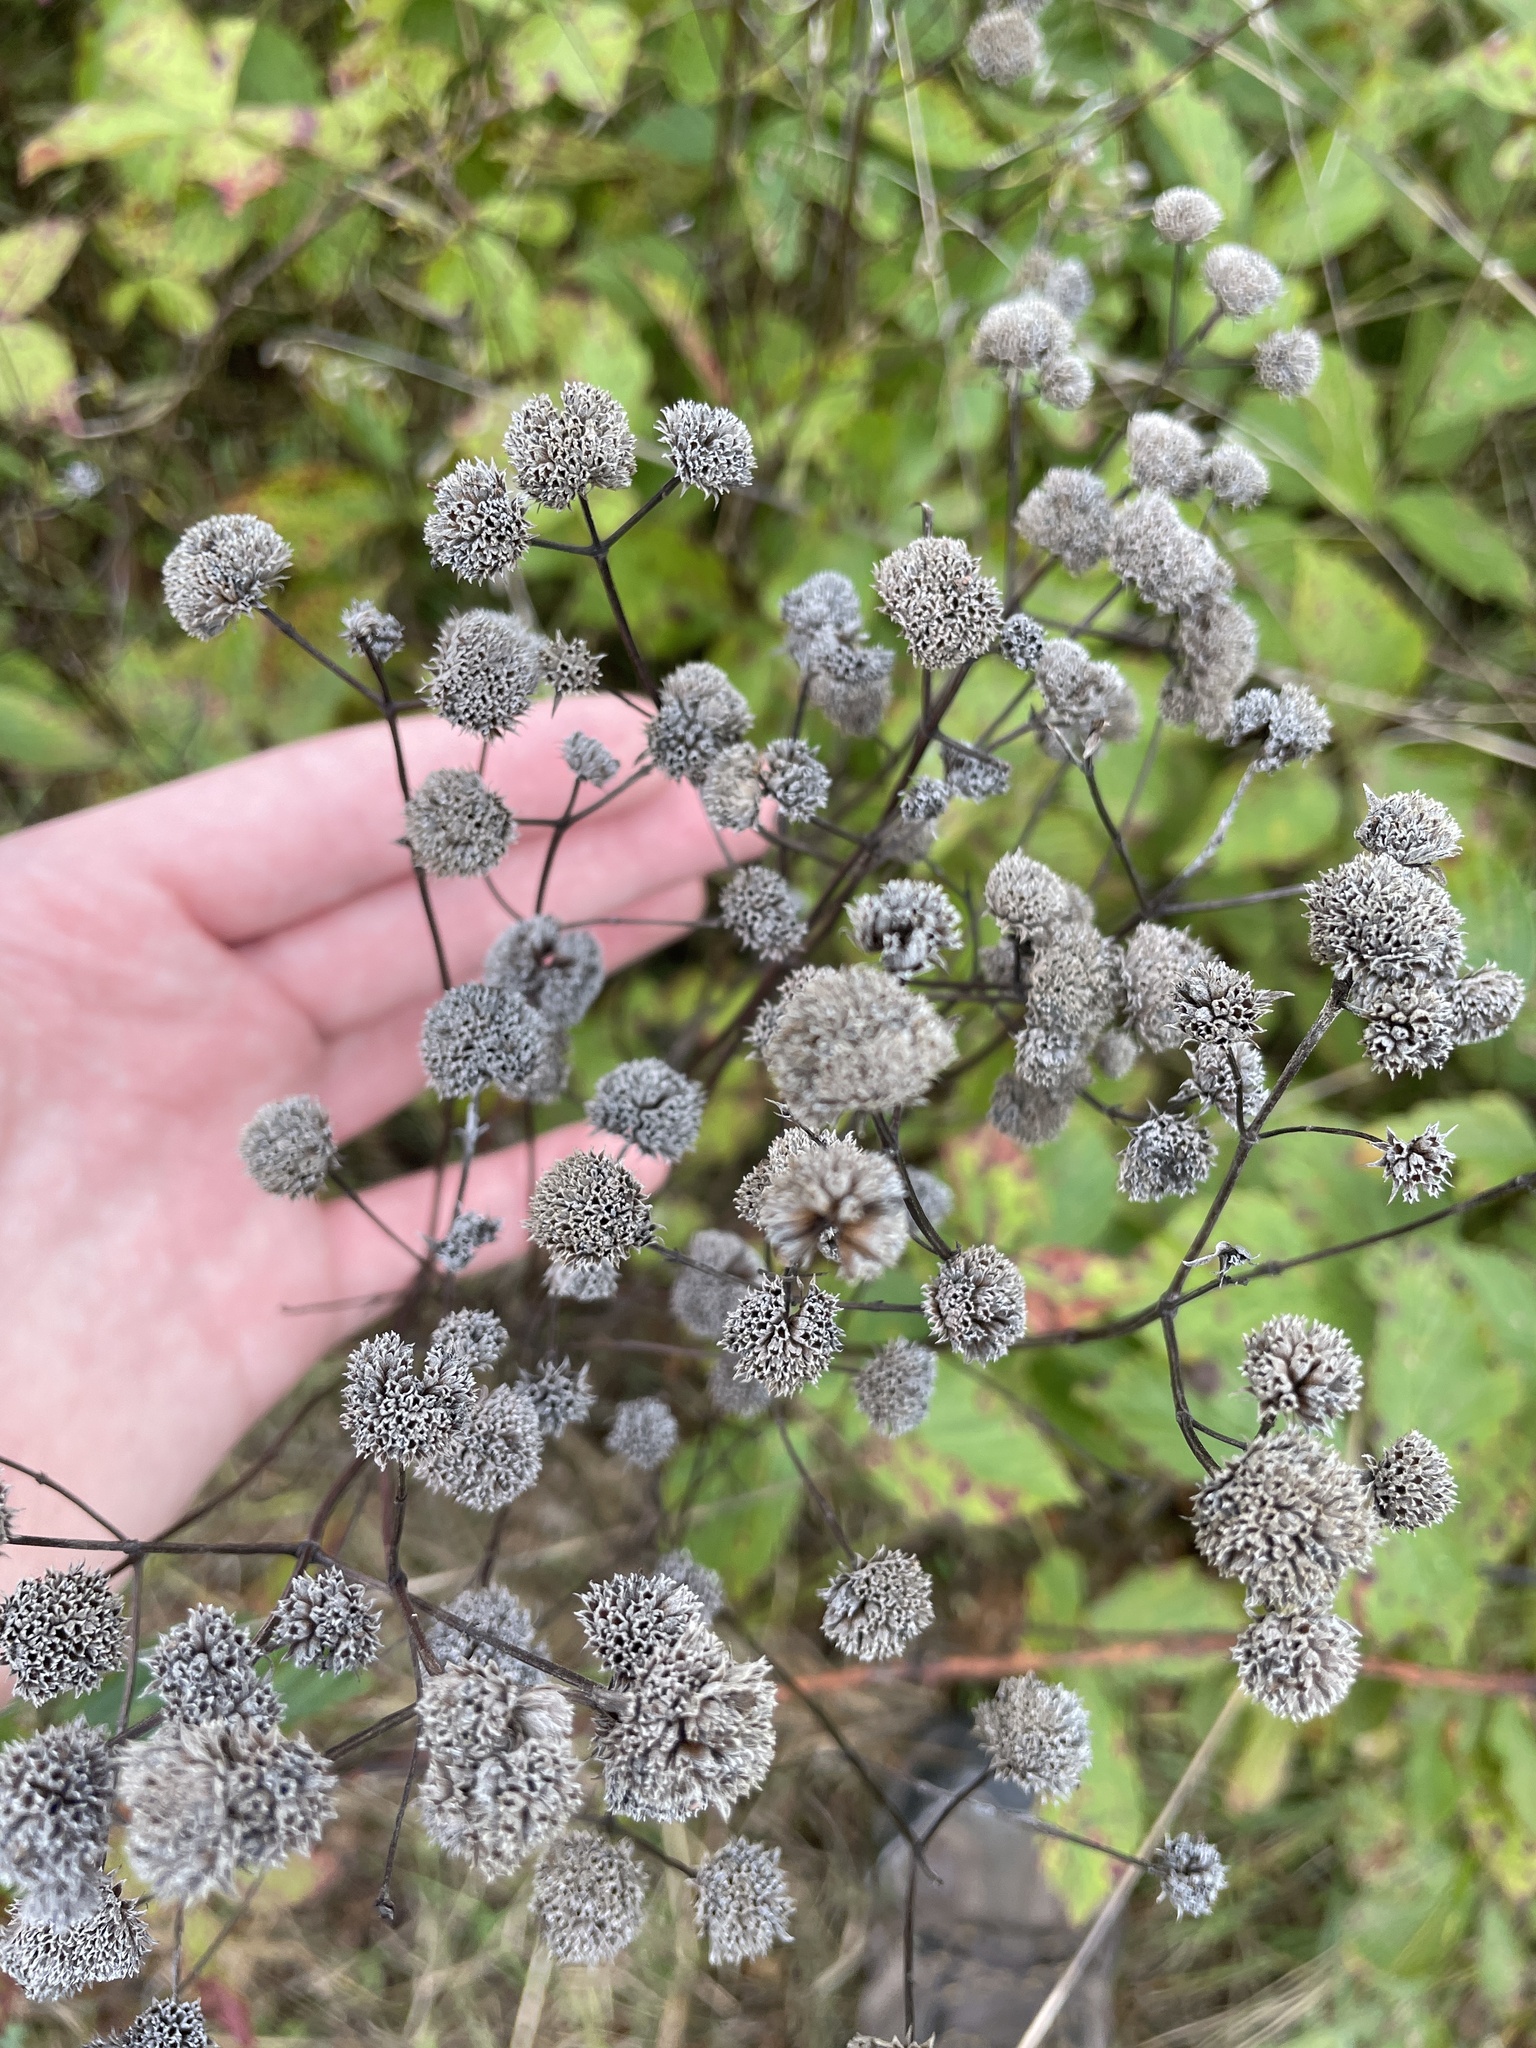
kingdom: Plantae
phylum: Tracheophyta
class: Magnoliopsida
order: Lamiales
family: Lamiaceae
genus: Pycnanthemum
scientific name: Pycnanthemum virginianum
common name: Virginia mountain-mint
